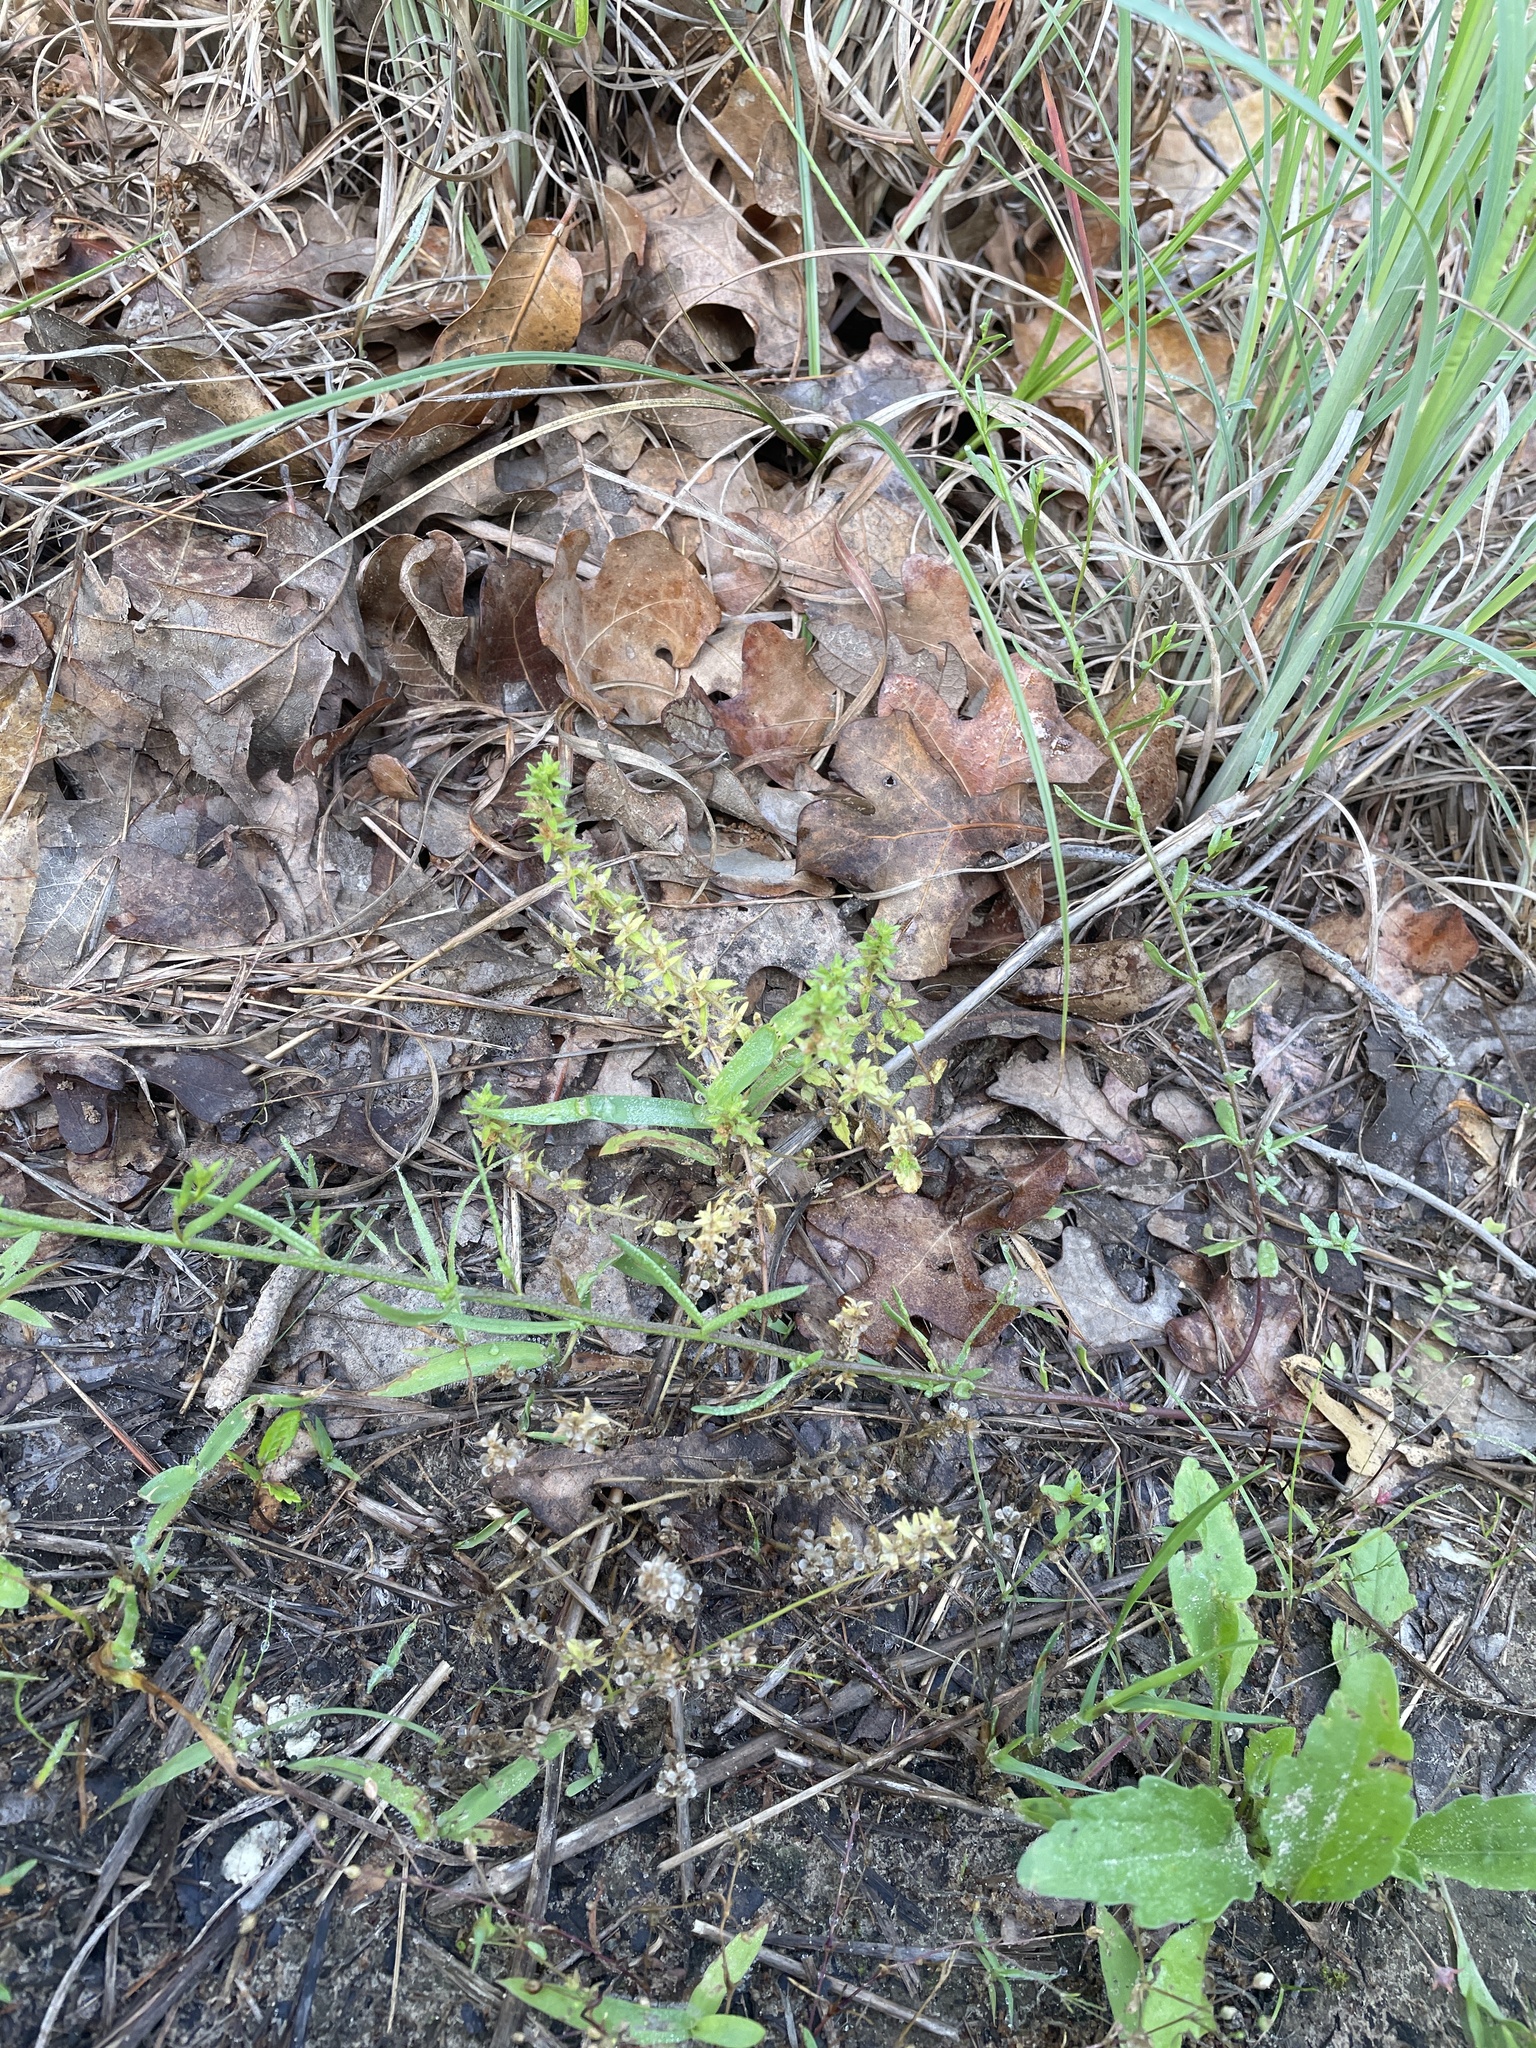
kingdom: Plantae
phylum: Tracheophyta
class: Magnoliopsida
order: Lamiales
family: Plantaginaceae
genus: Veronica
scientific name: Veronica arvensis
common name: Corn speedwell
